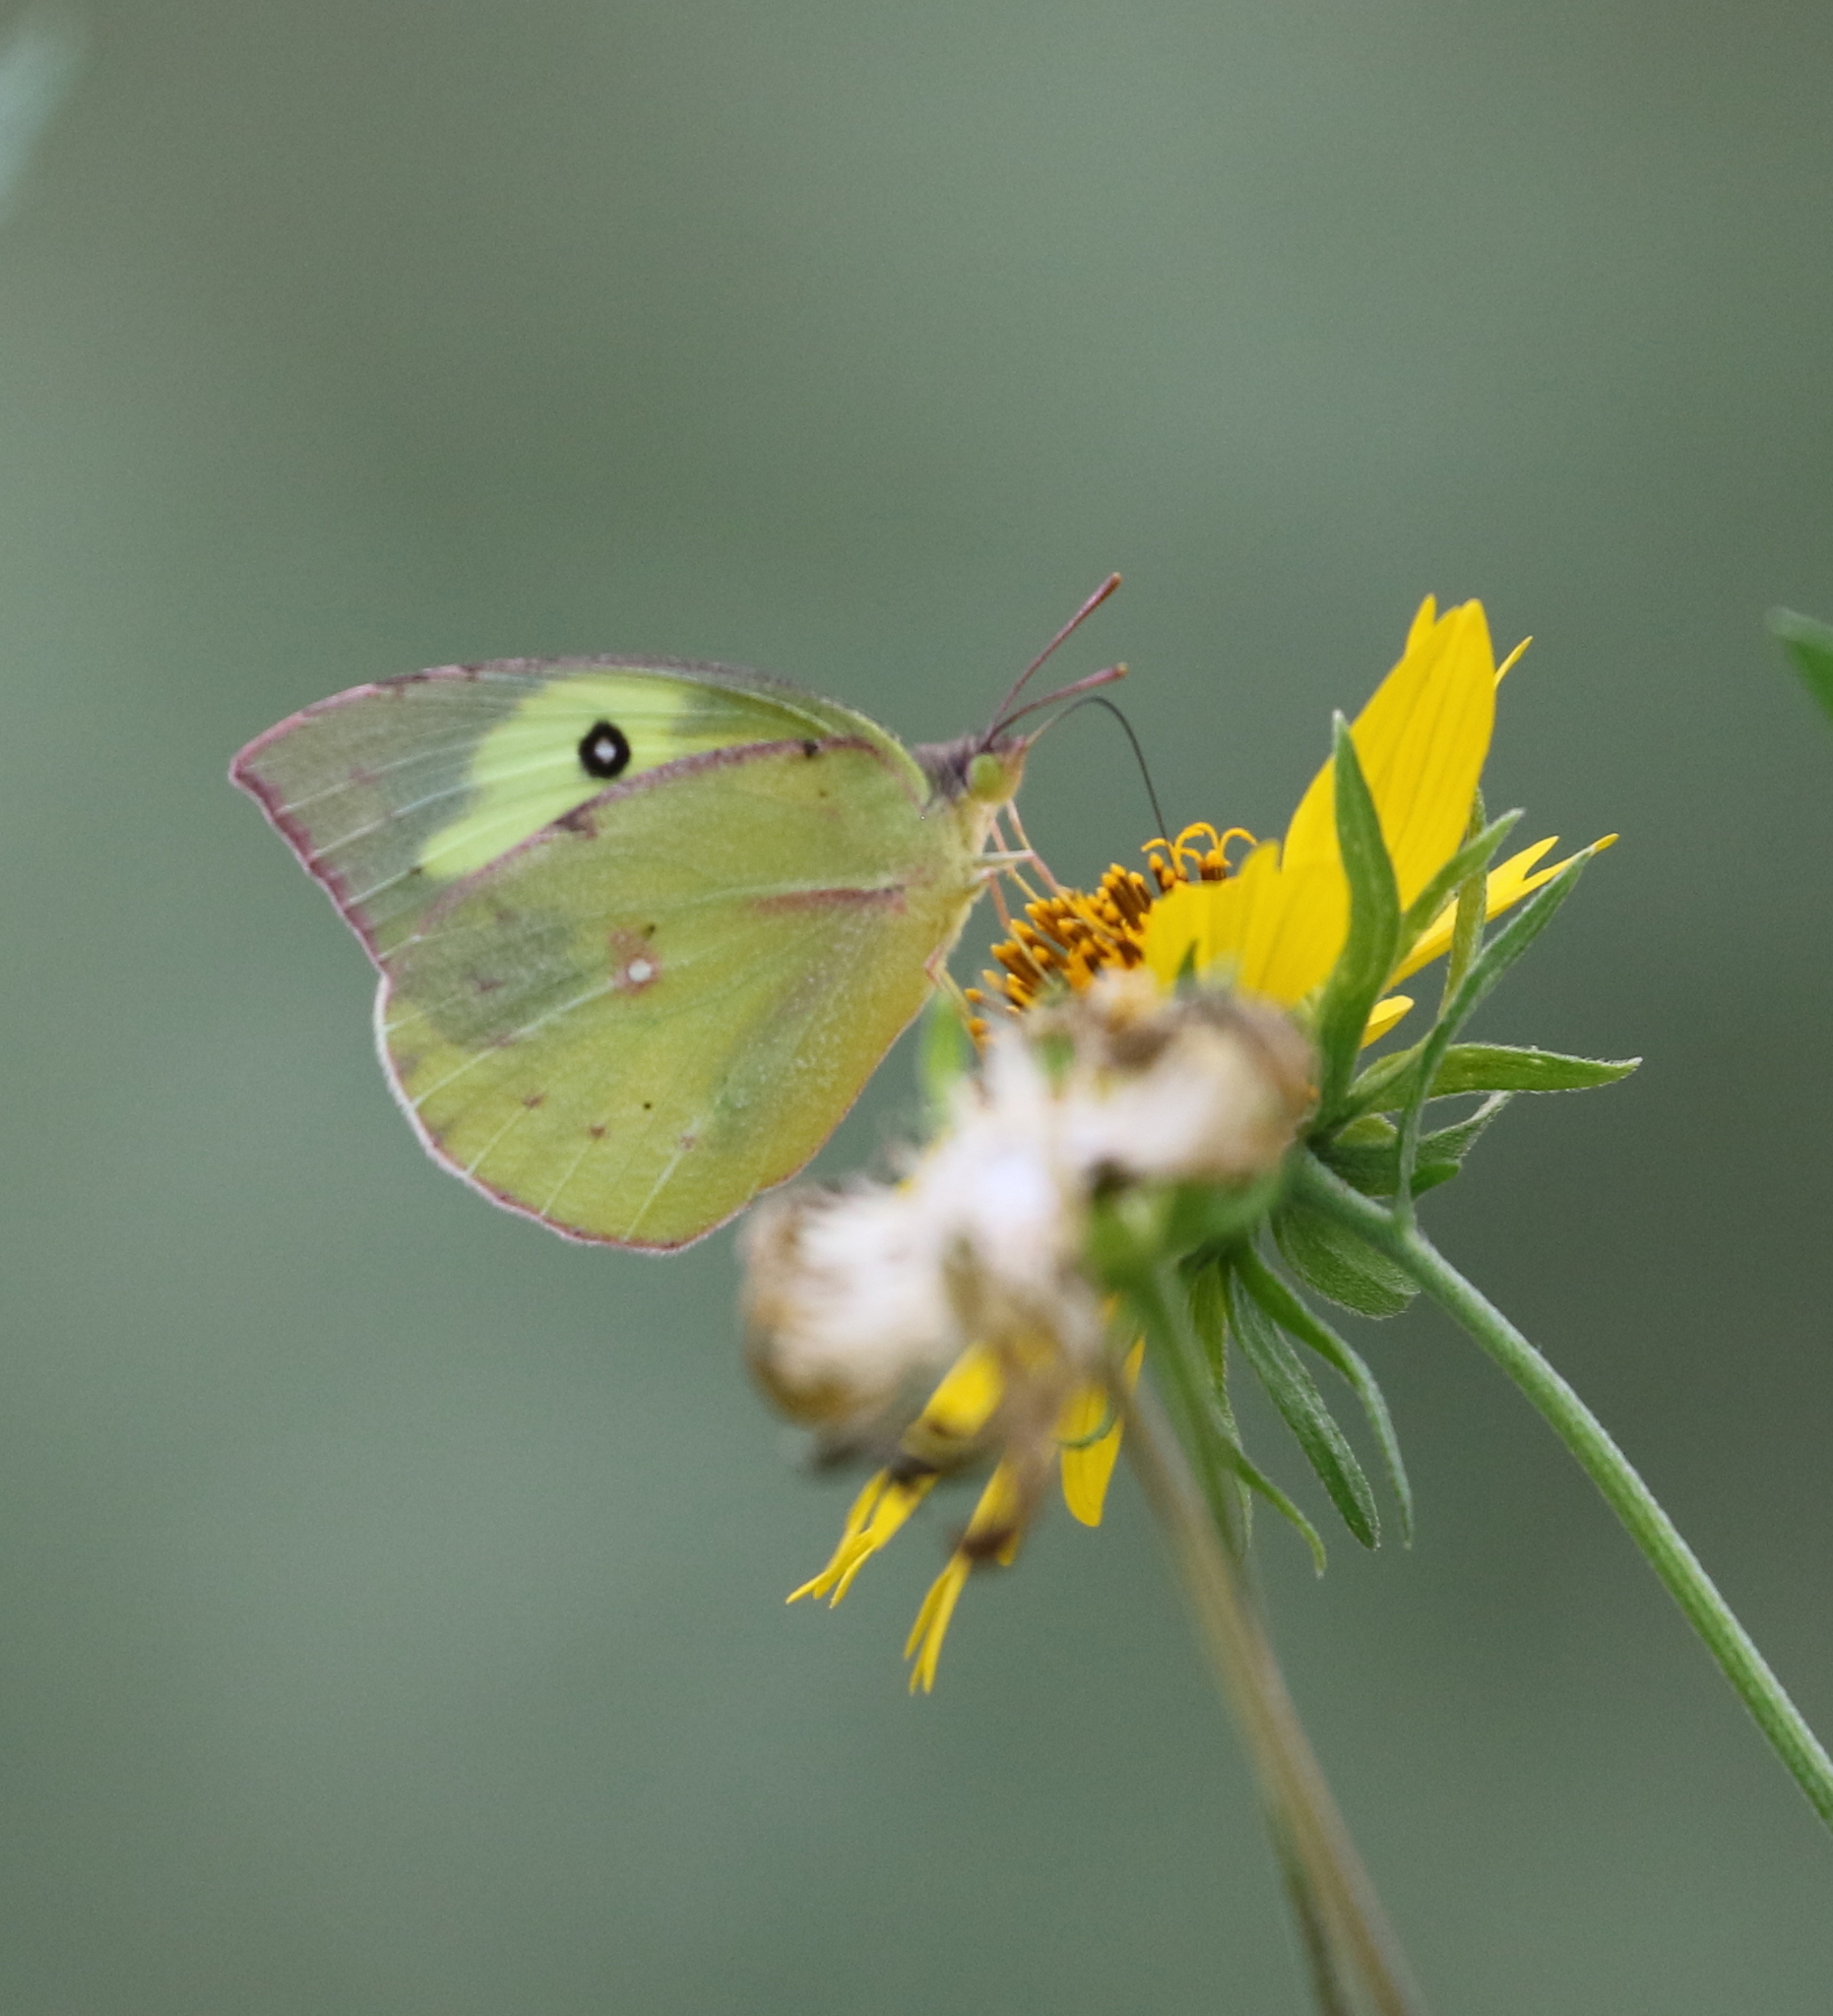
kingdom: Animalia
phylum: Arthropoda
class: Insecta
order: Lepidoptera
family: Pieridae
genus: Zerene
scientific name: Zerene cesonia
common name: Southern dogface
